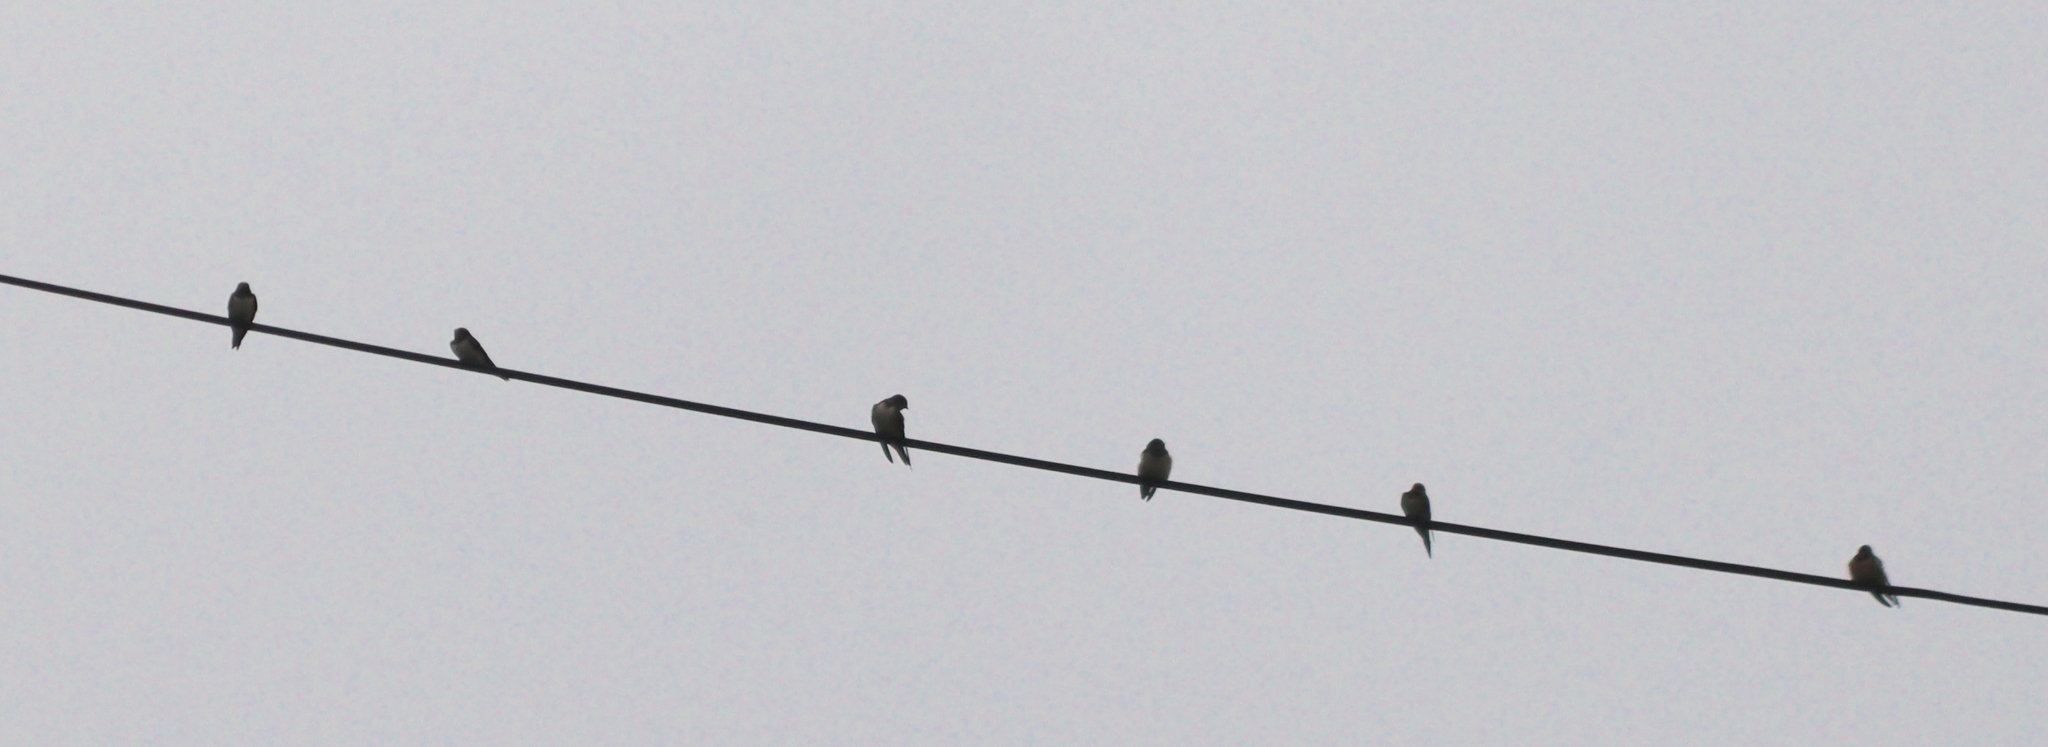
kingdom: Animalia
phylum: Chordata
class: Aves
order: Passeriformes
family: Hirundinidae
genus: Hirundo
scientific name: Hirundo rustica
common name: Barn swallow
